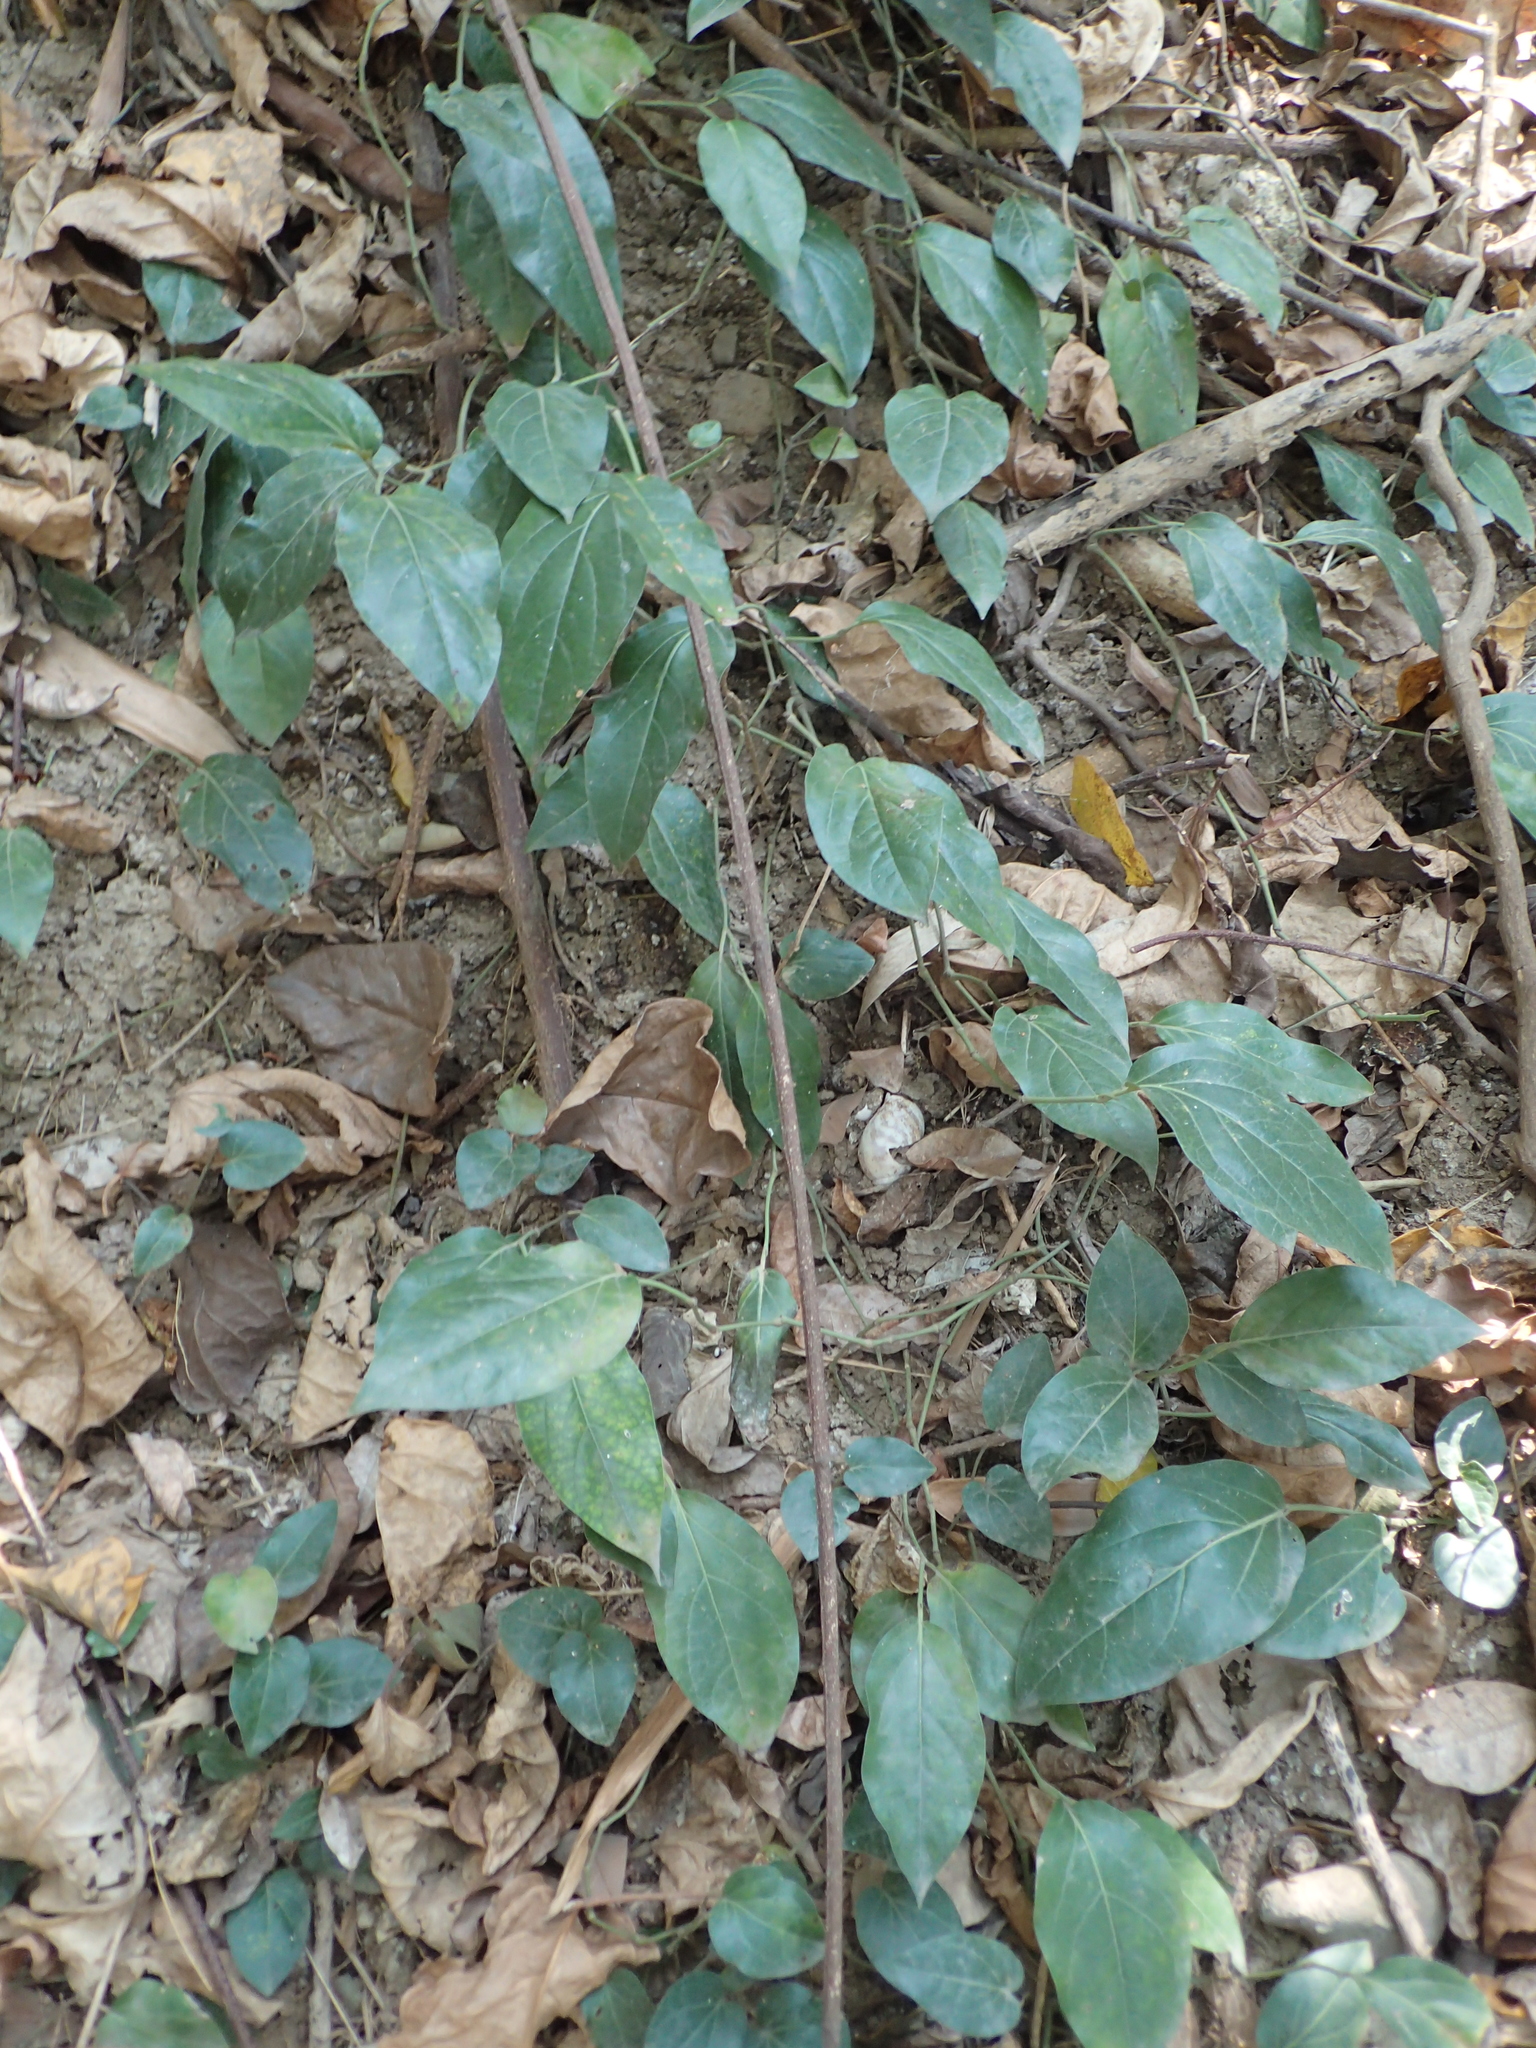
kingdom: Plantae
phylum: Tracheophyta
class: Magnoliopsida
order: Piperales
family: Piperaceae
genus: Piper
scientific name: Piper kawakamii
